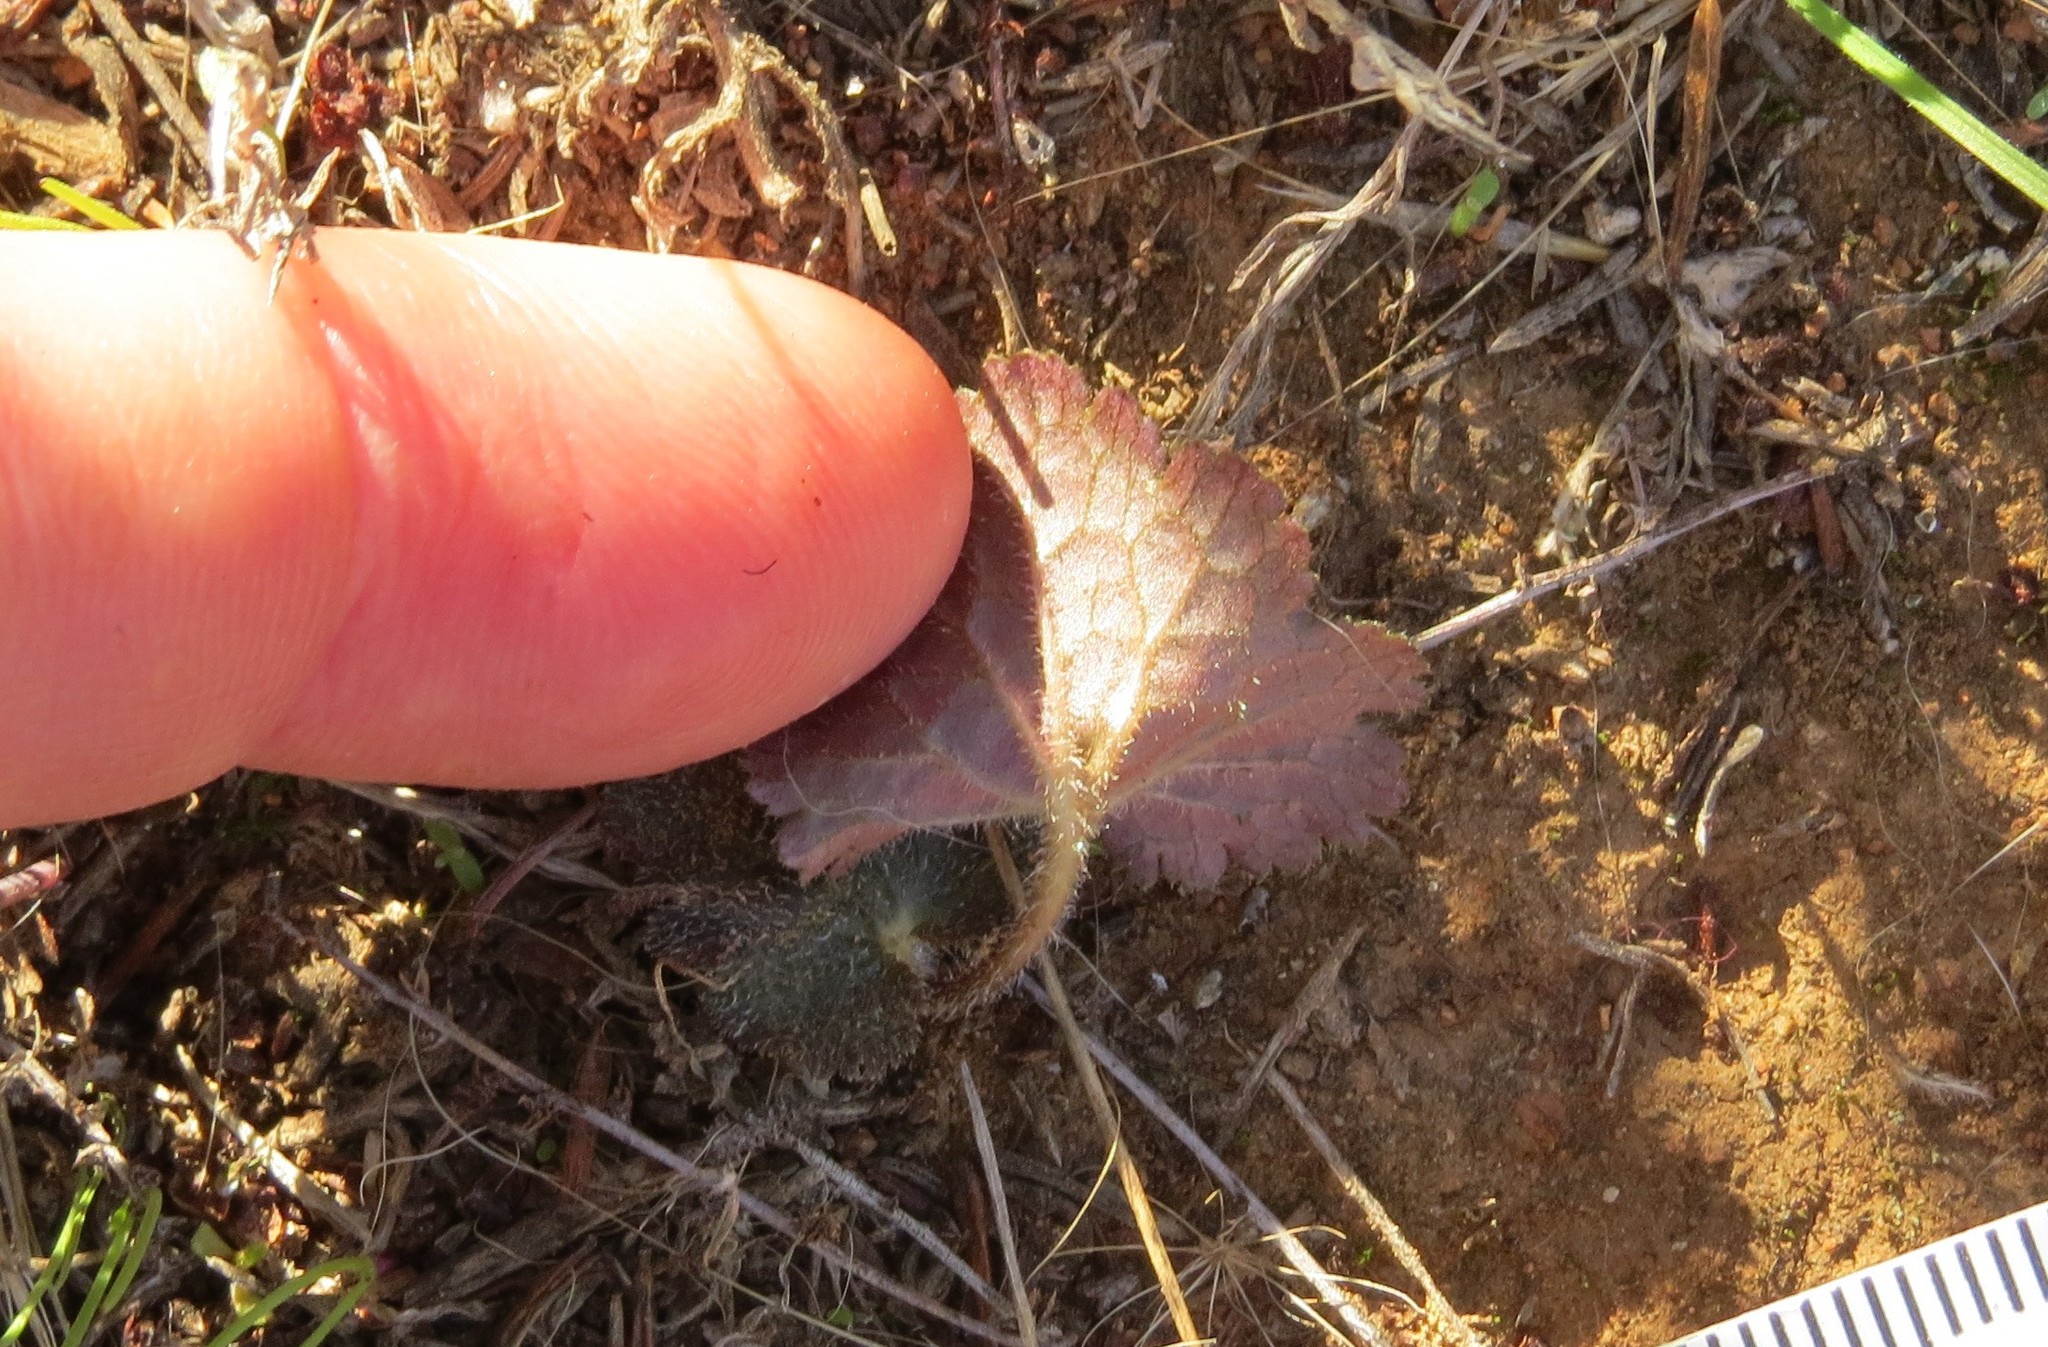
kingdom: Plantae
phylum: Tracheophyta
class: Magnoliopsida
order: Saxifragales
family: Saxifragaceae
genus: Jepsonia
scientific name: Jepsonia parryi
